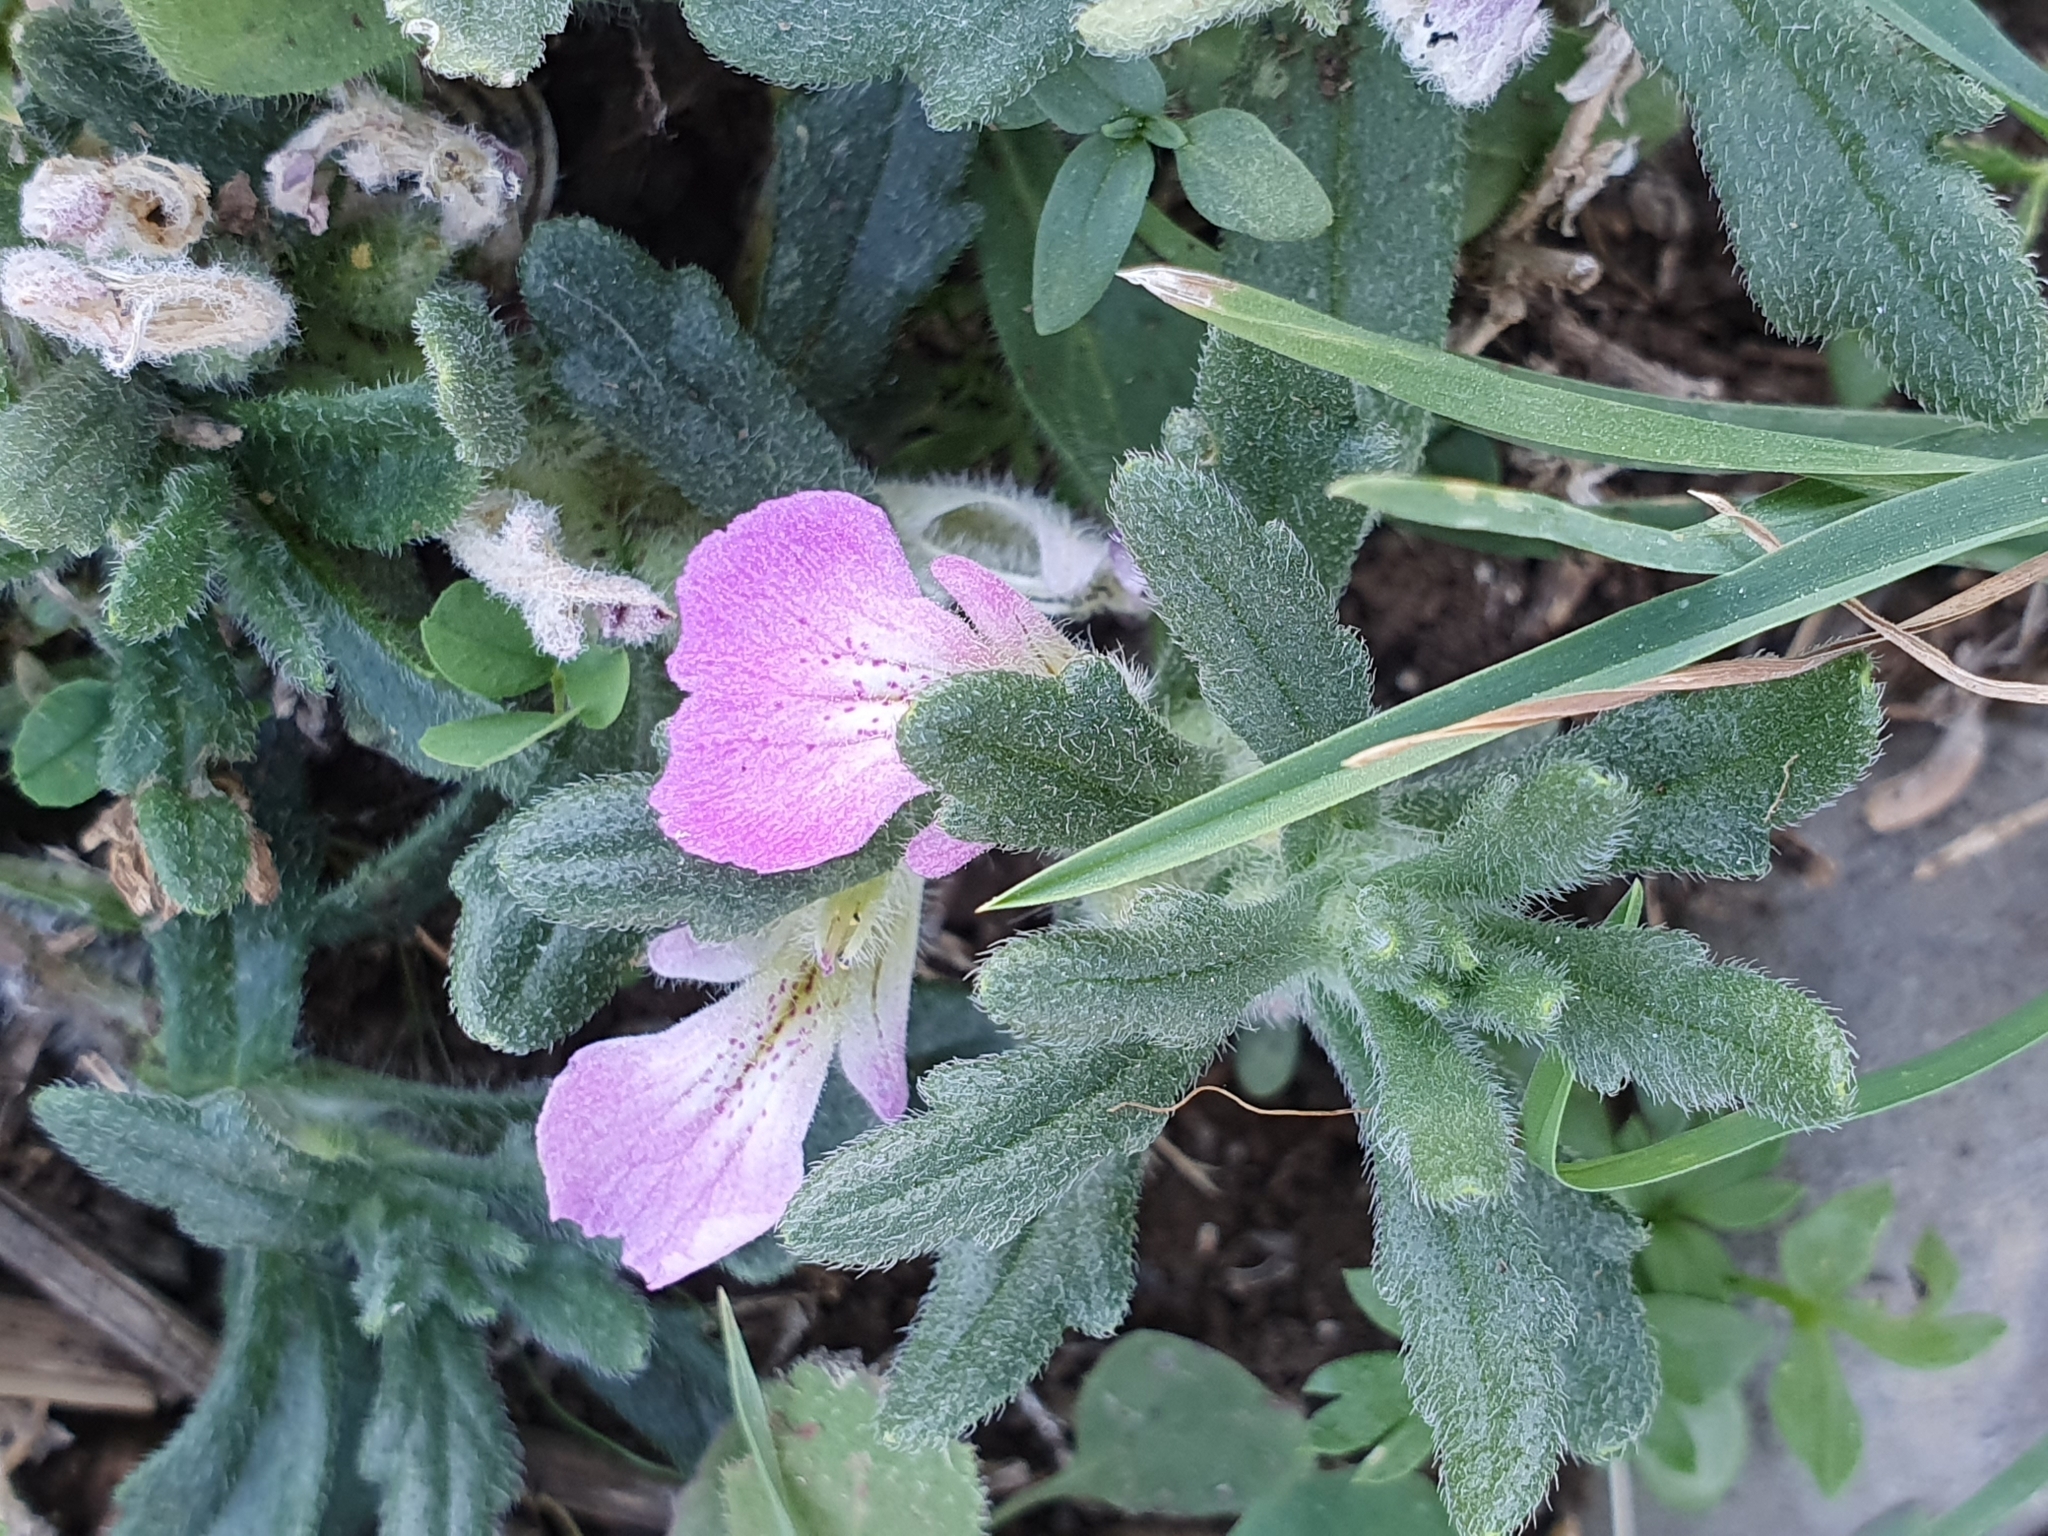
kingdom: Plantae
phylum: Tracheophyta
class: Magnoliopsida
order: Lamiales
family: Lamiaceae
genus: Ajuga
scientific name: Ajuga iva
